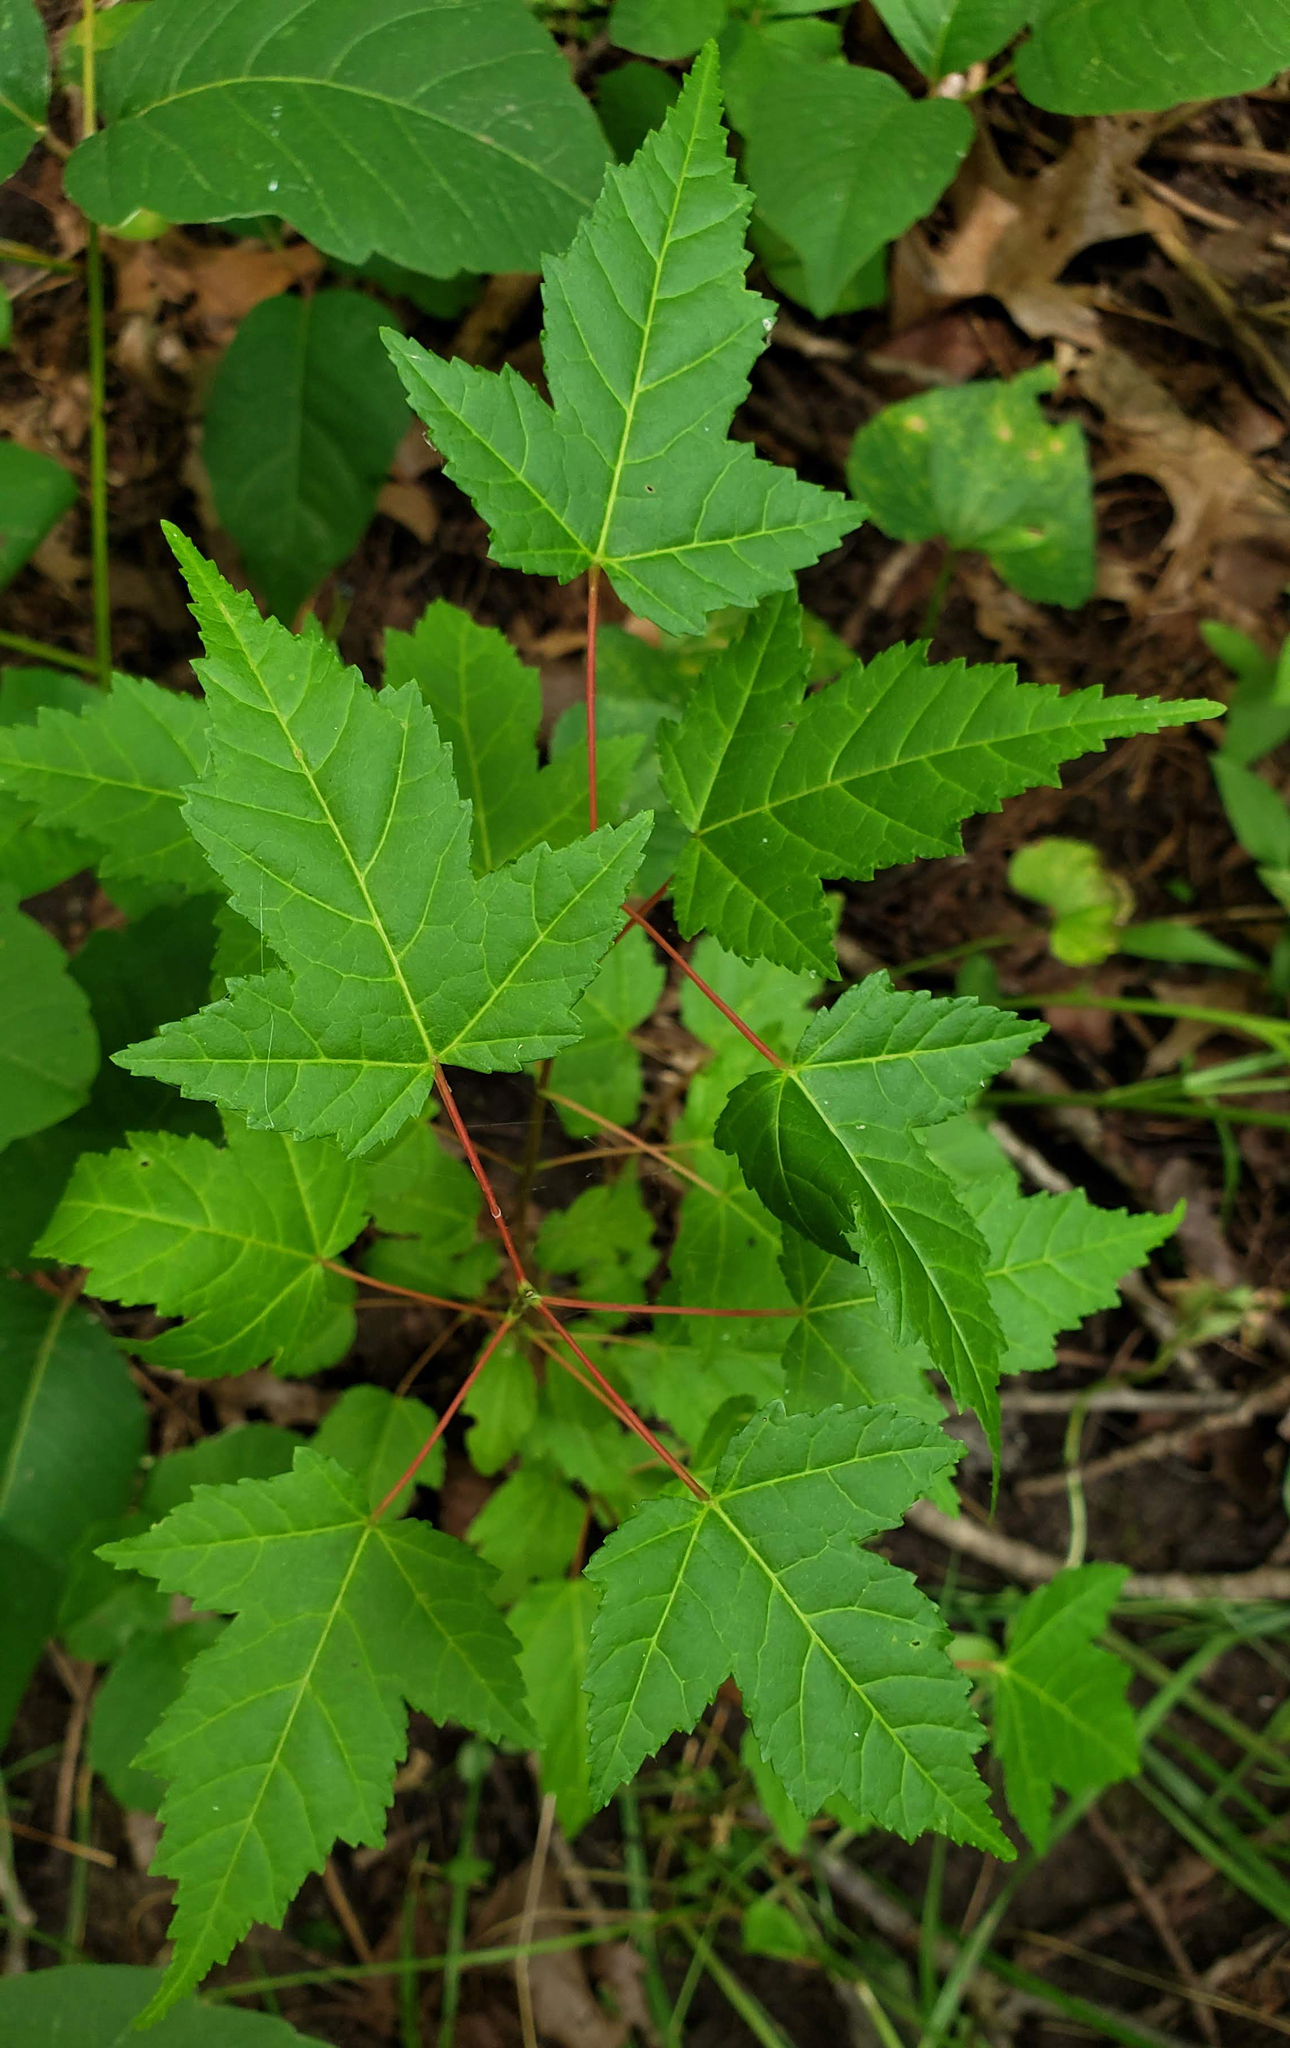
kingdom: Plantae
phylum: Tracheophyta
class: Magnoliopsida
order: Sapindales
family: Sapindaceae
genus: Acer
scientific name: Acer tataricum
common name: Tartar maple
